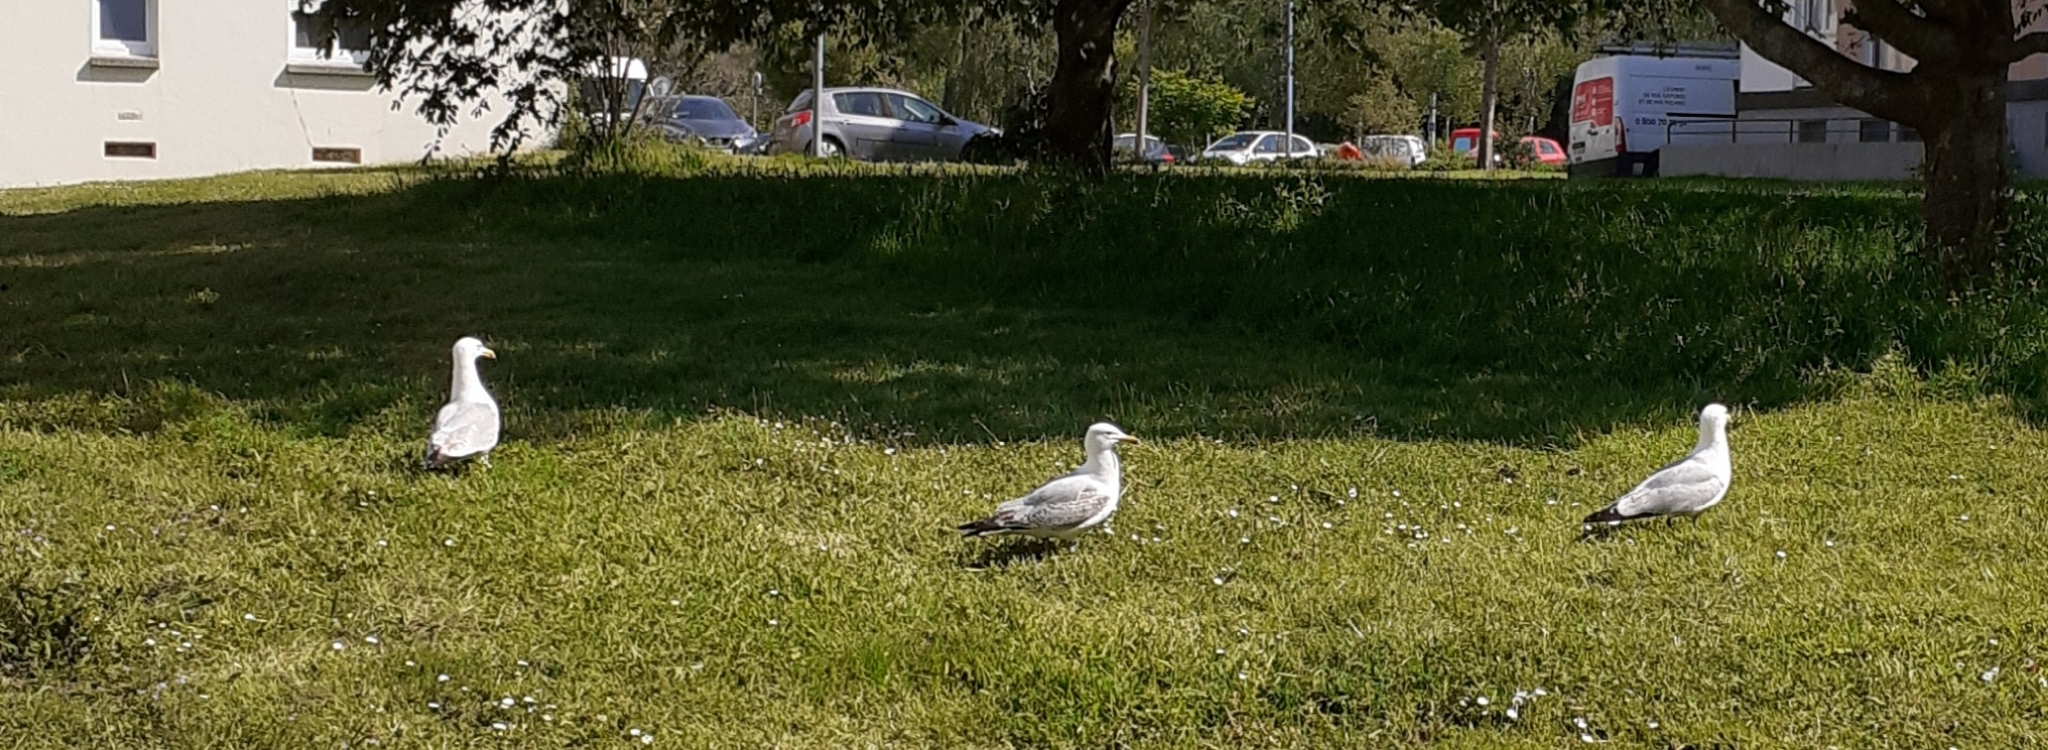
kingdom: Animalia
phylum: Chordata
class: Aves
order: Charadriiformes
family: Laridae
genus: Larus
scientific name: Larus argentatus
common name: Herring gull
